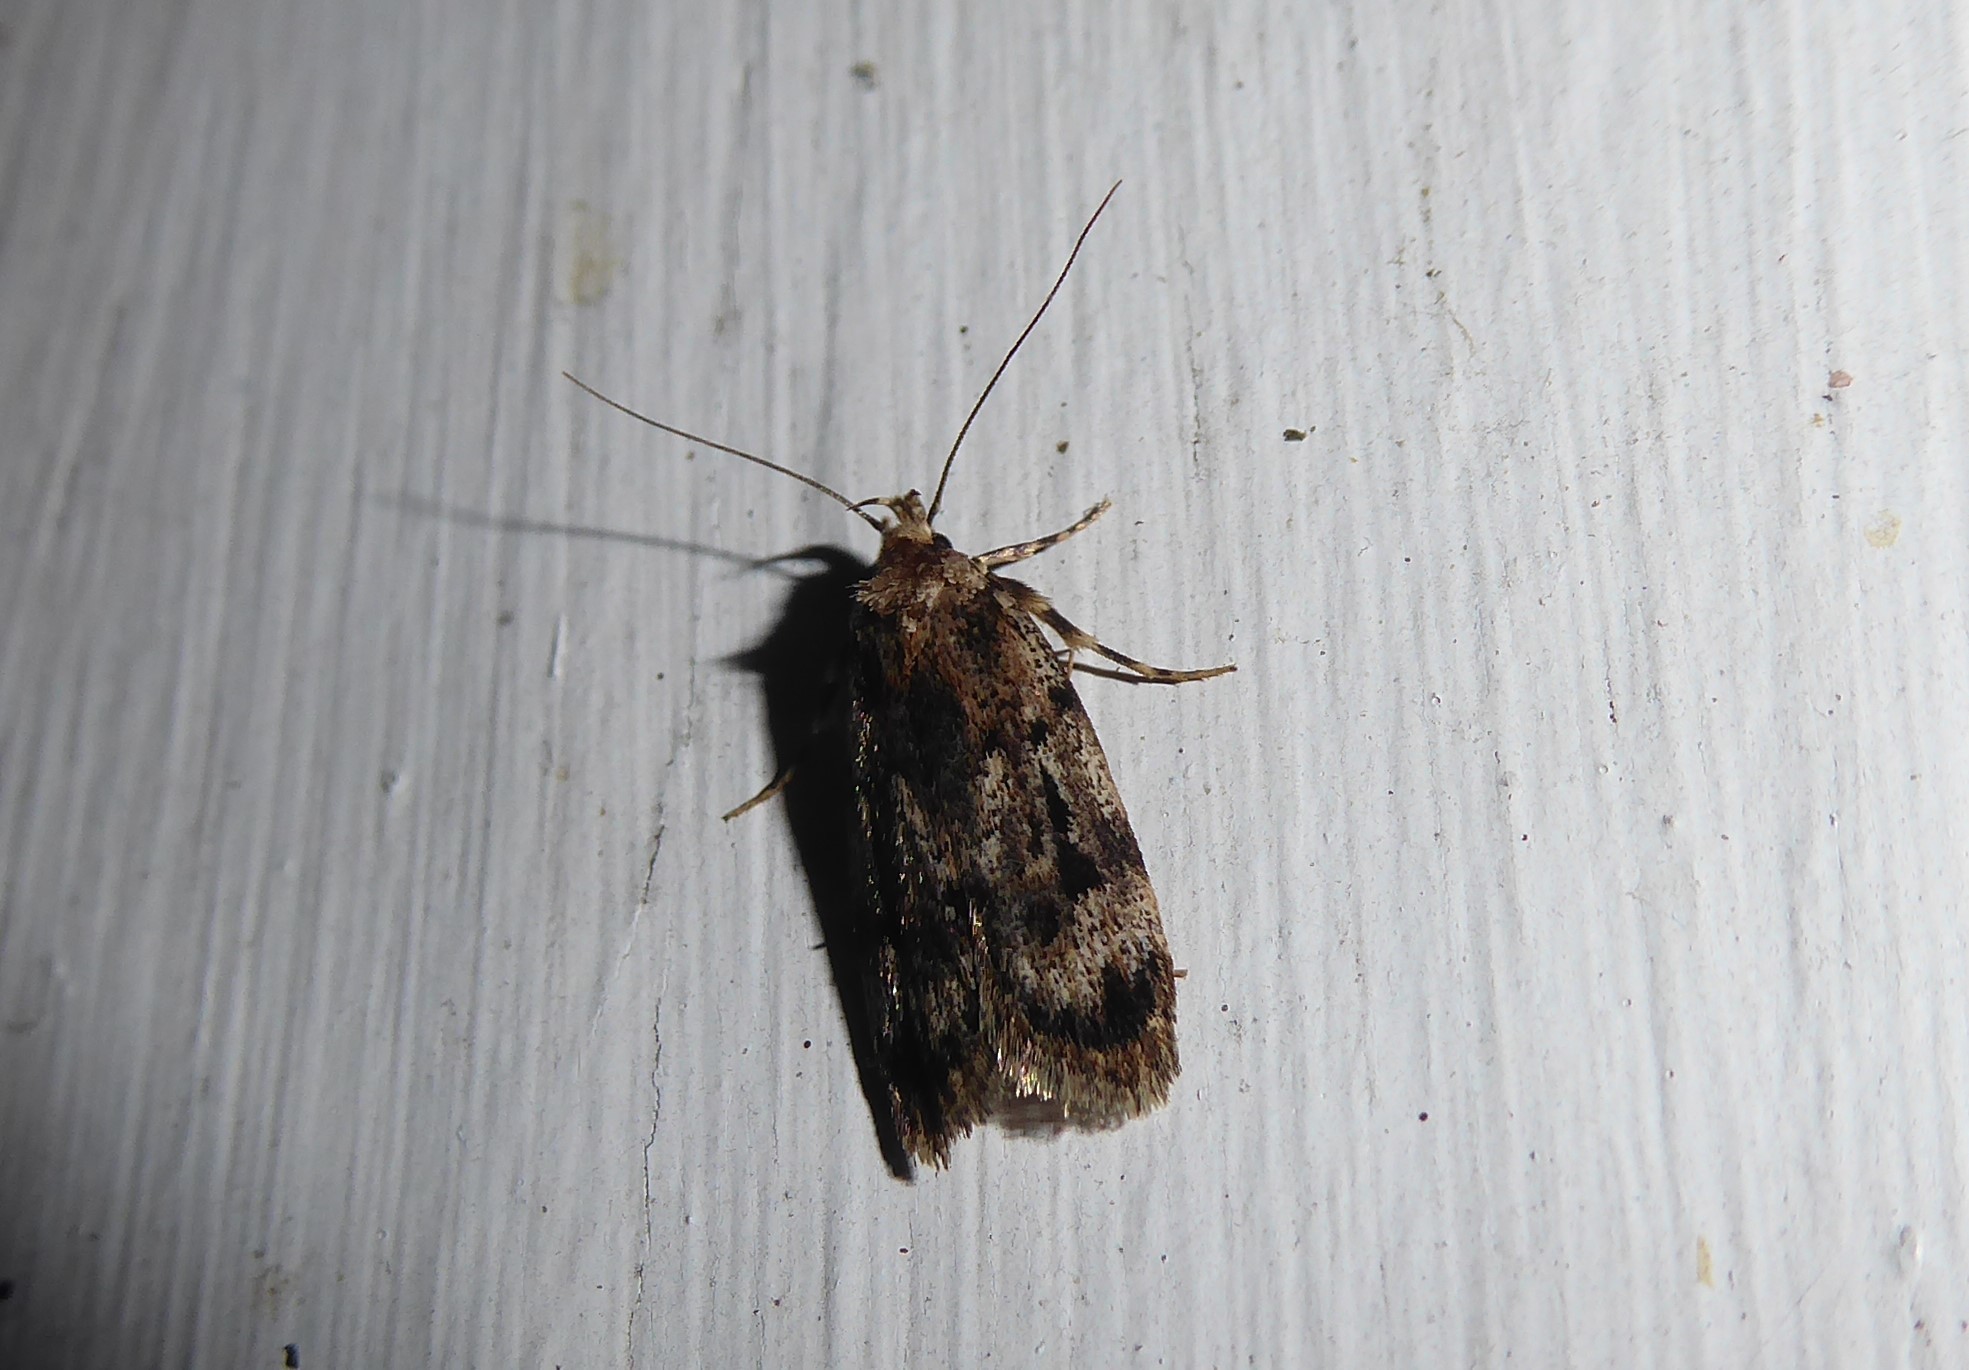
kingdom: Animalia
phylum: Arthropoda
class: Insecta
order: Lepidoptera
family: Oecophoridae
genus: Barea
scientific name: Barea exarcha
